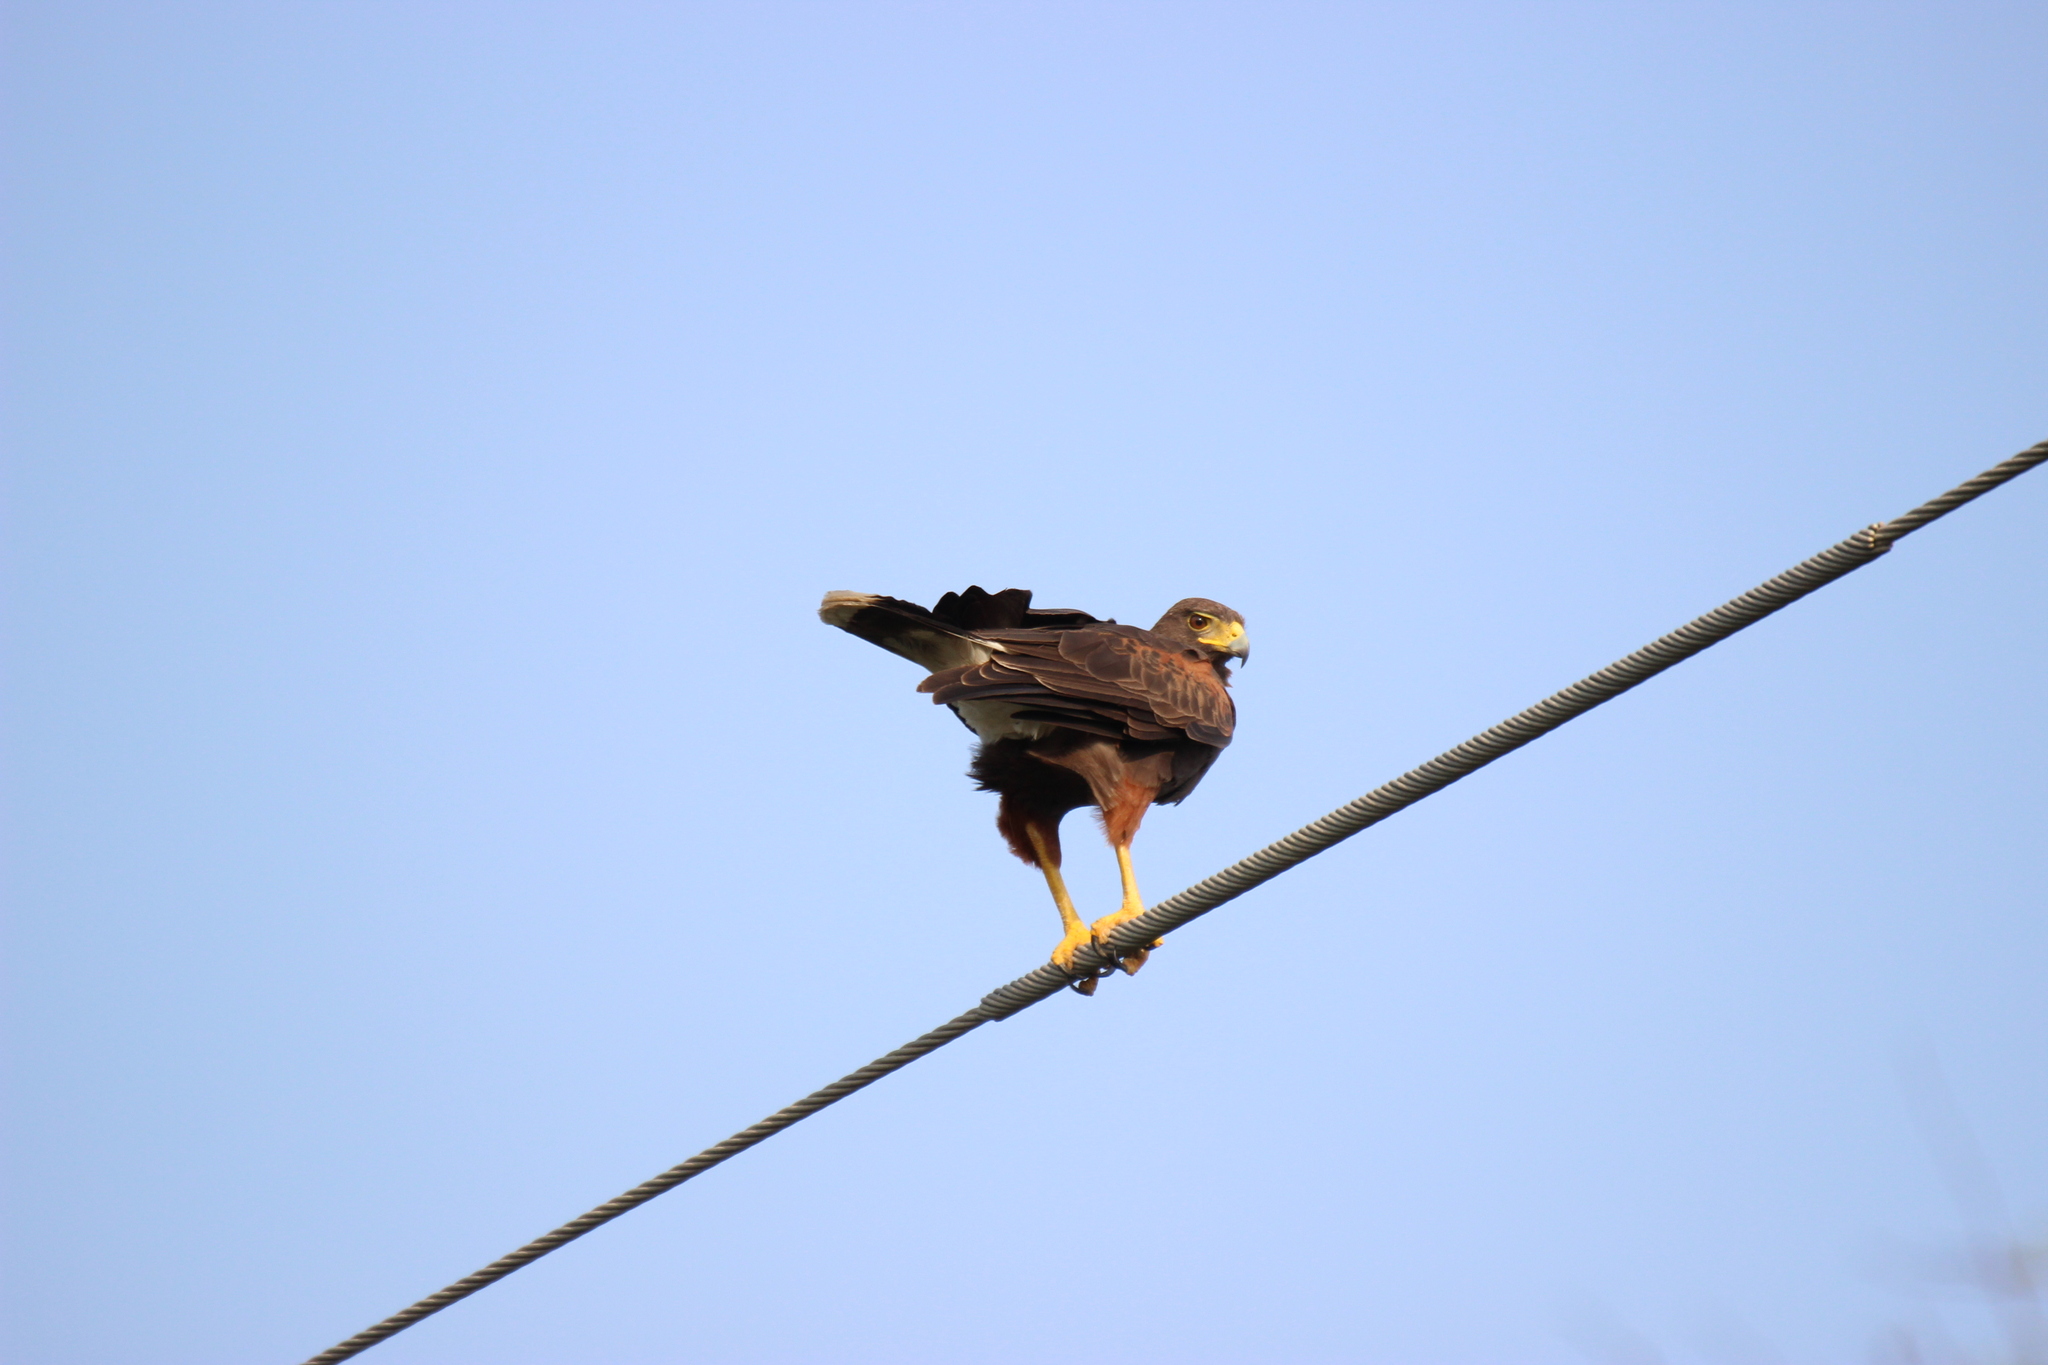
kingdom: Animalia
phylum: Chordata
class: Aves
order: Accipitriformes
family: Accipitridae
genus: Parabuteo
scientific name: Parabuteo unicinctus
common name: Harris's hawk
